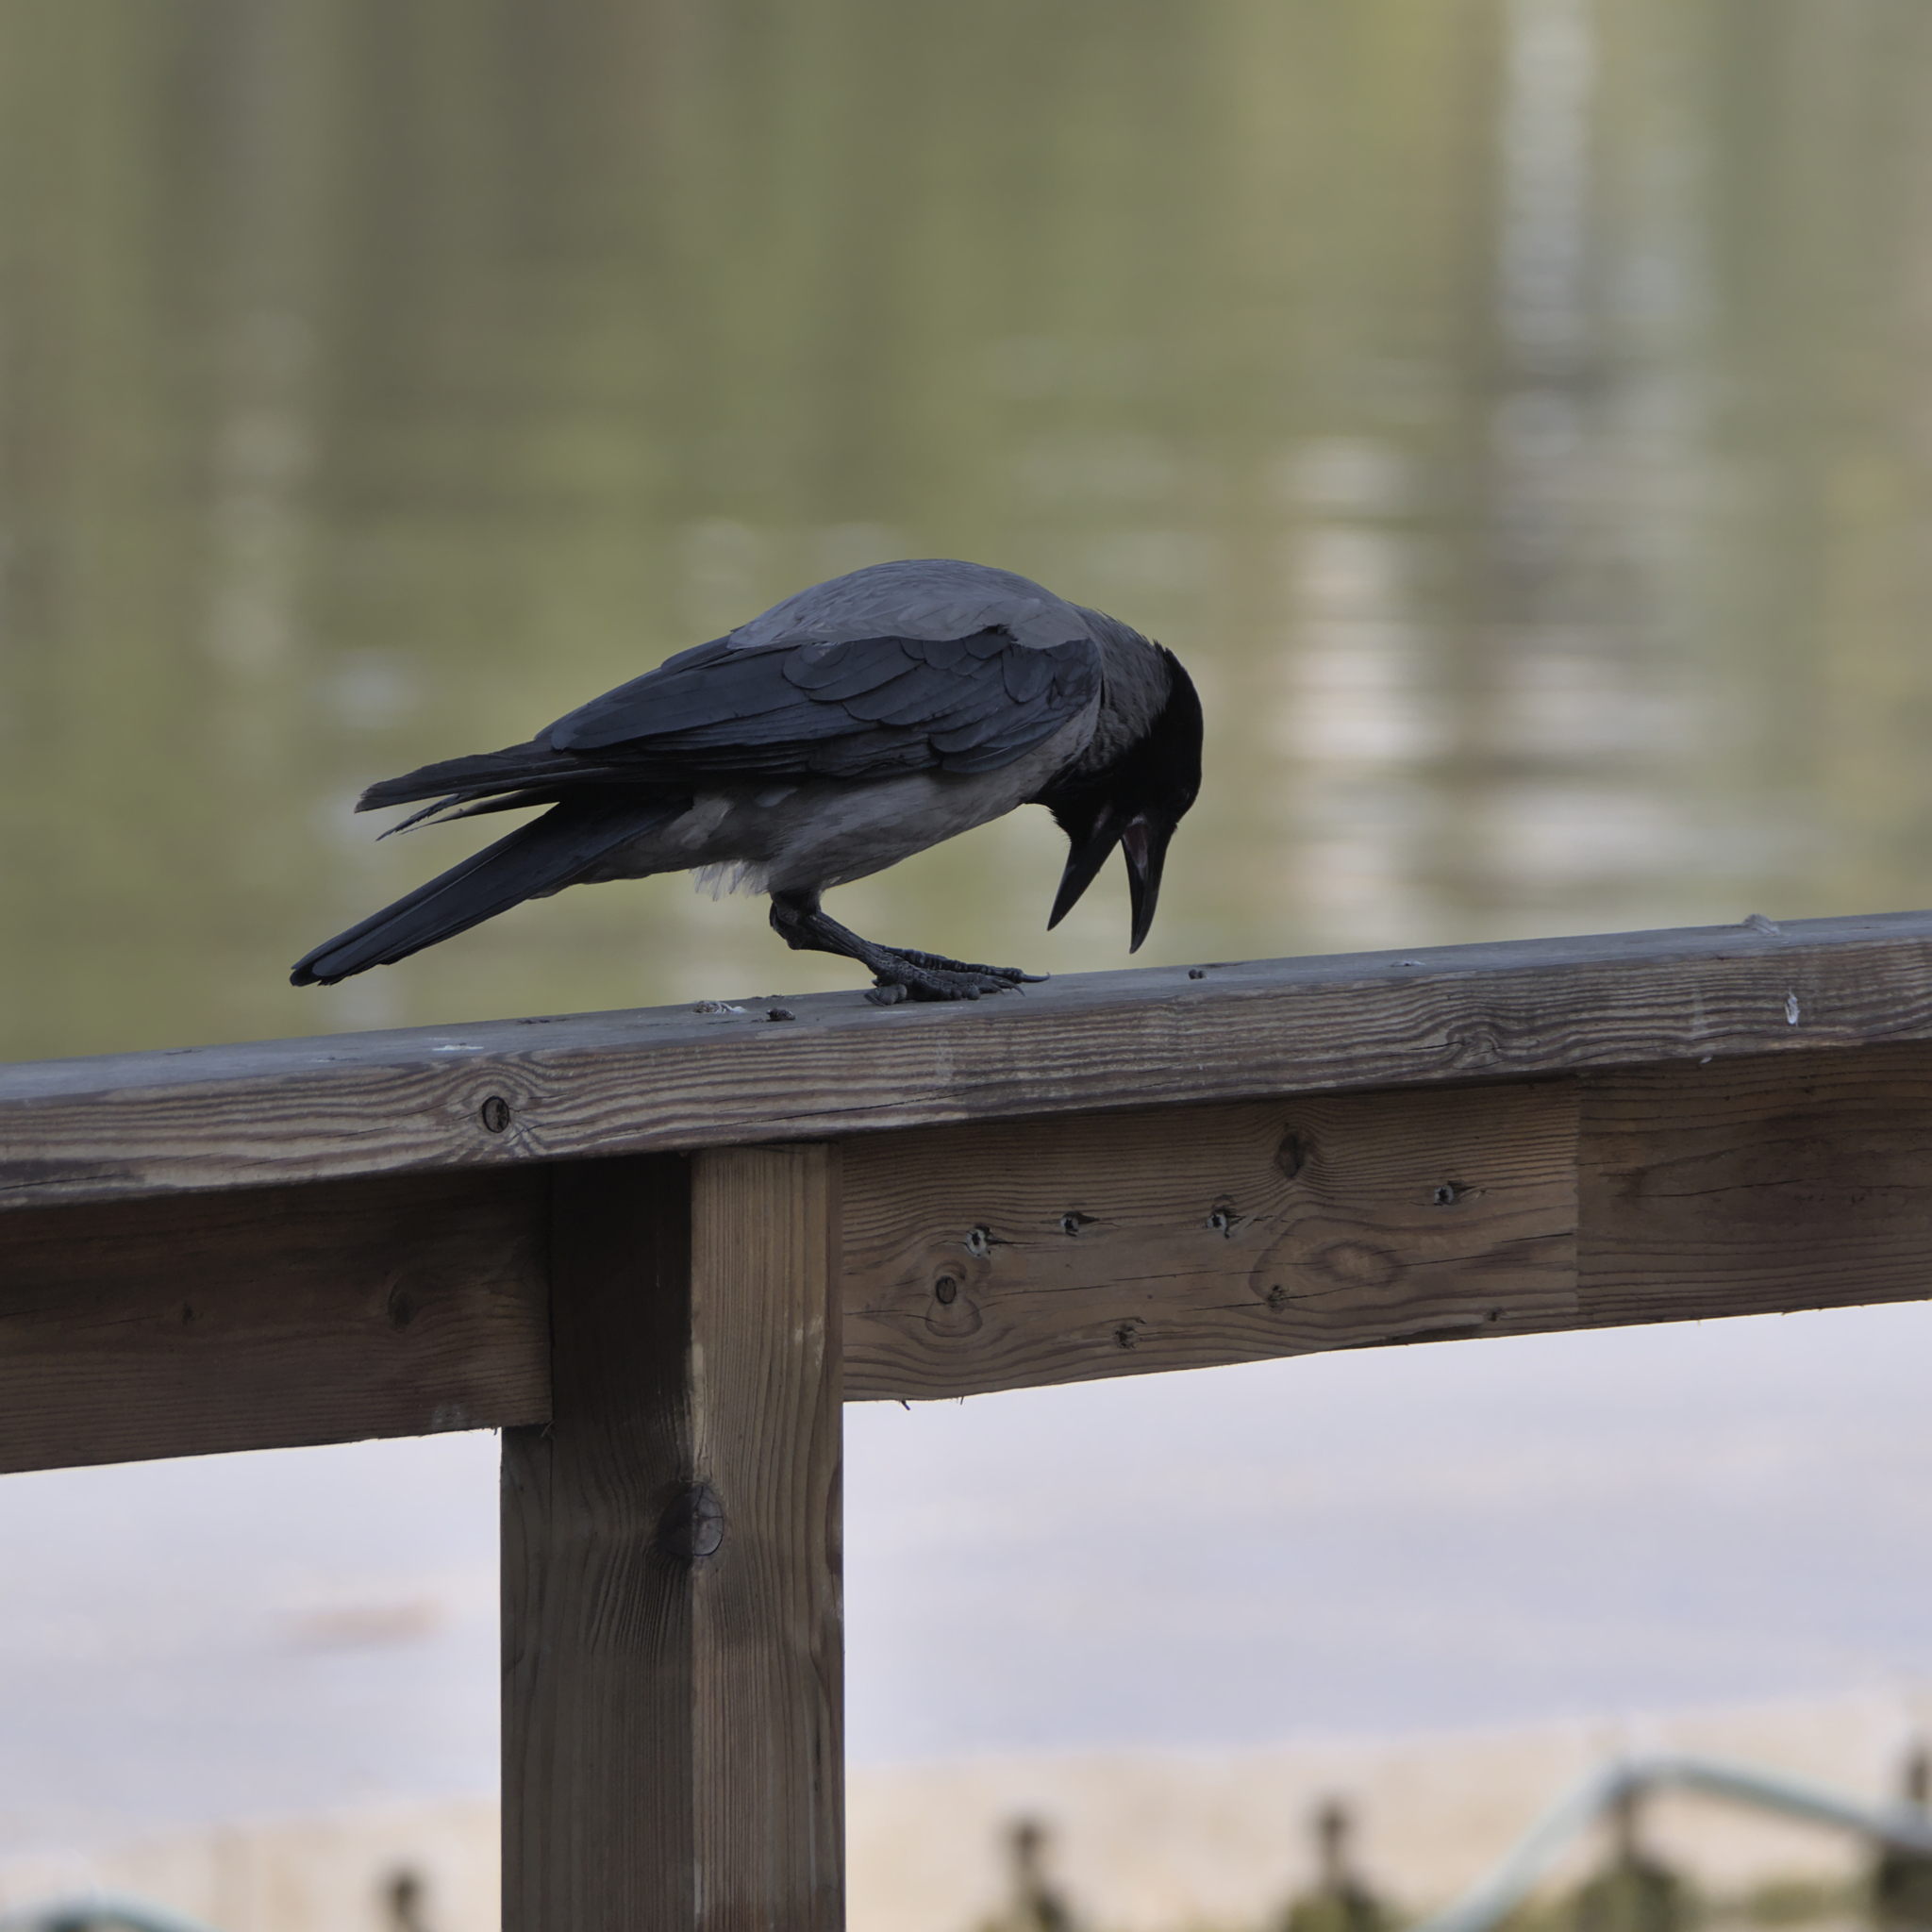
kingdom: Animalia
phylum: Chordata
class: Aves
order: Passeriformes
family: Corvidae
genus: Corvus
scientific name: Corvus cornix
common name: Hooded crow
